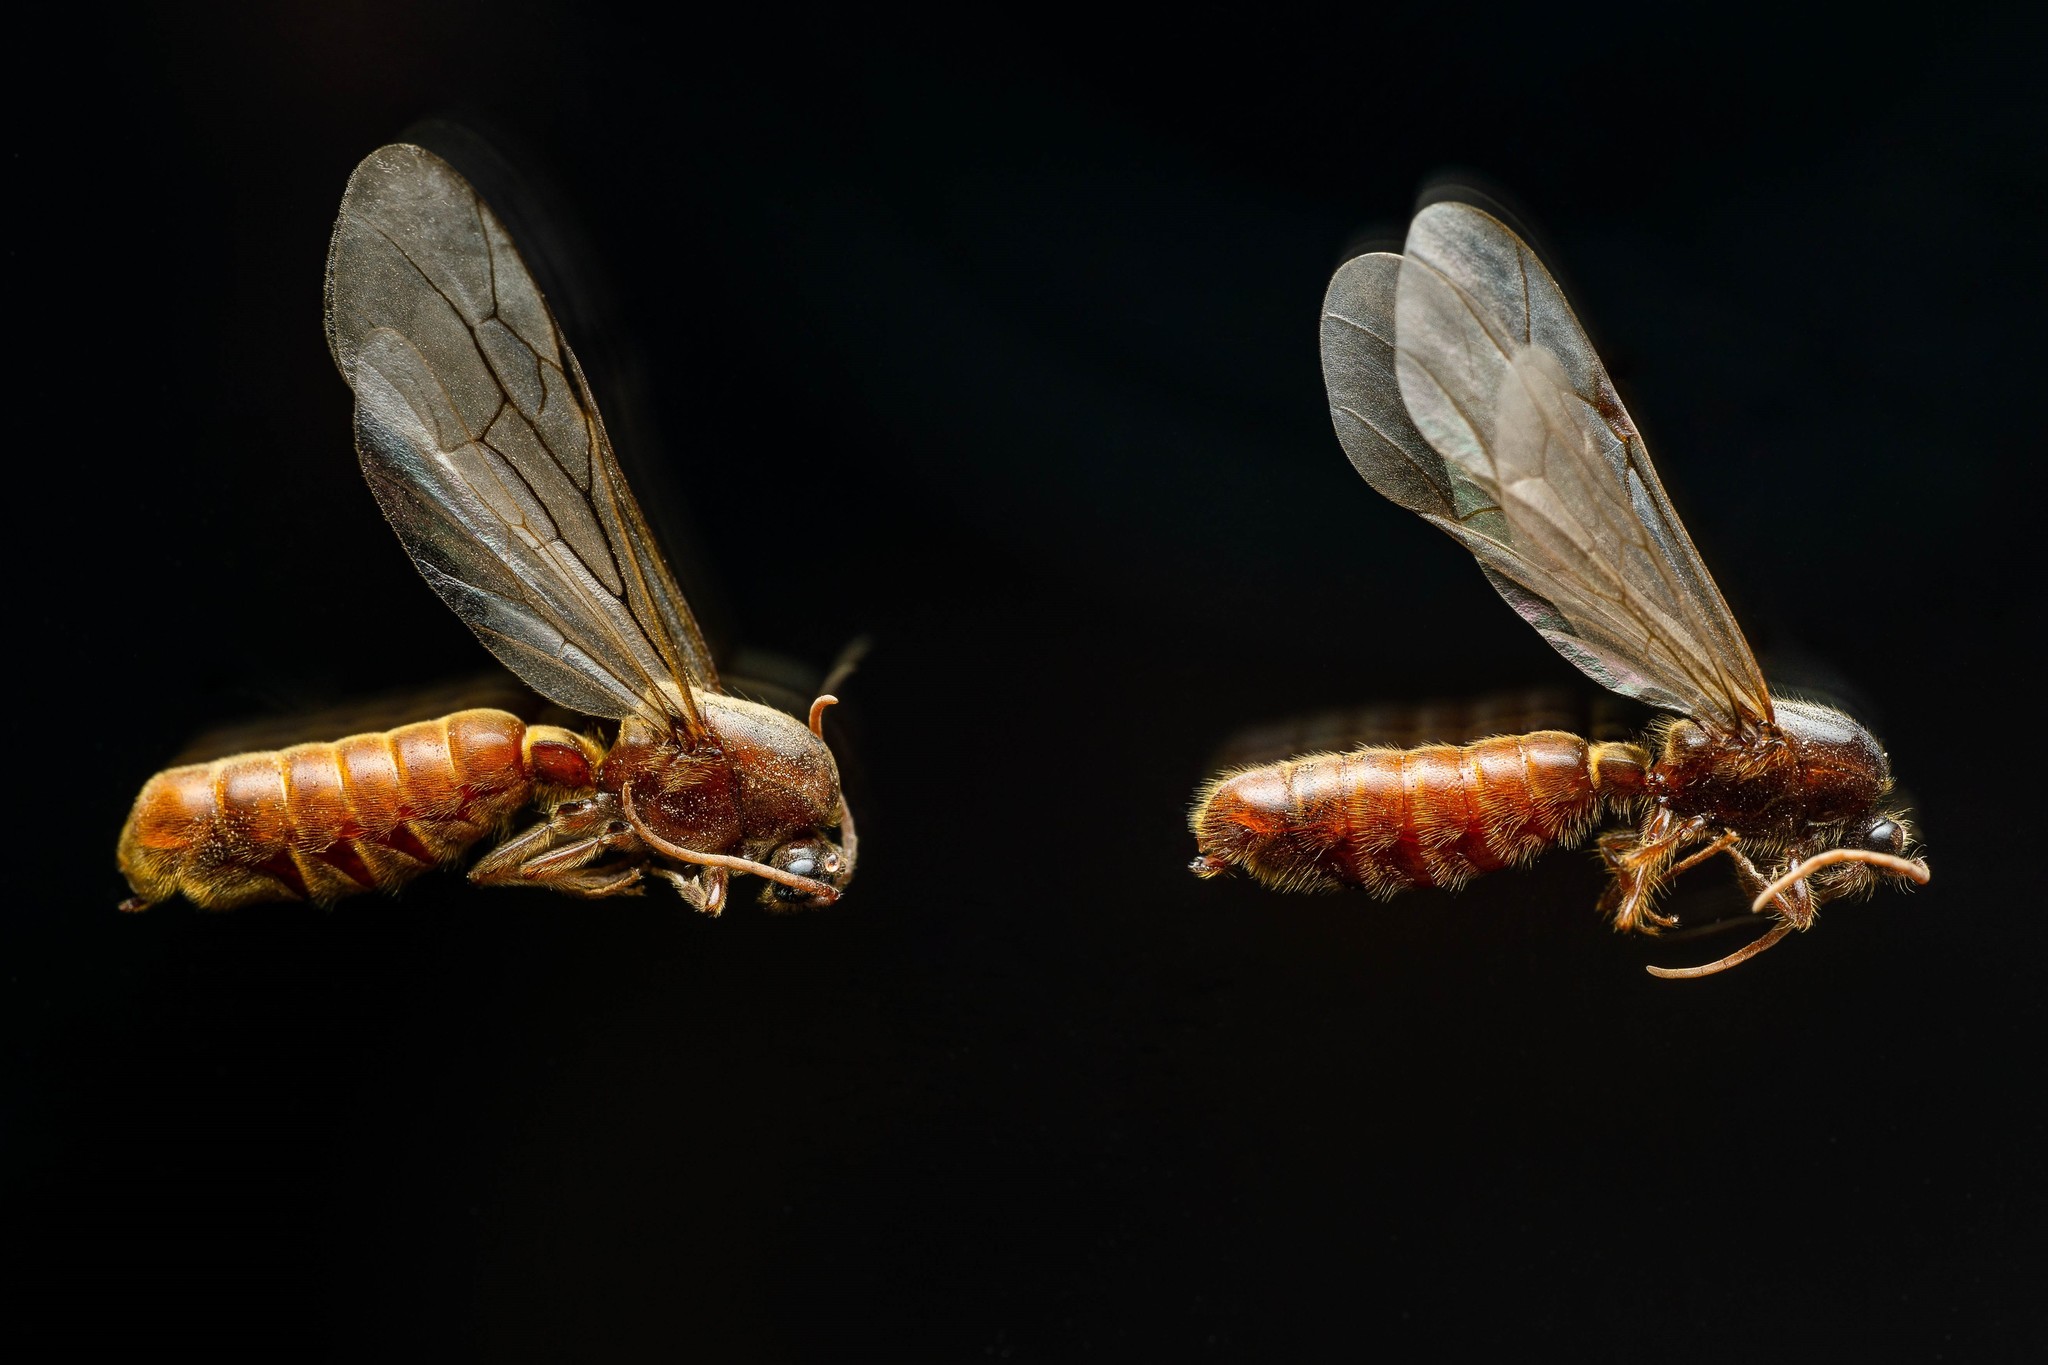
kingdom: Animalia
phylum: Arthropoda
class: Insecta
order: Hymenoptera
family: Formicidae
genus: Neivamyrmex
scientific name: Neivamyrmex andrei
